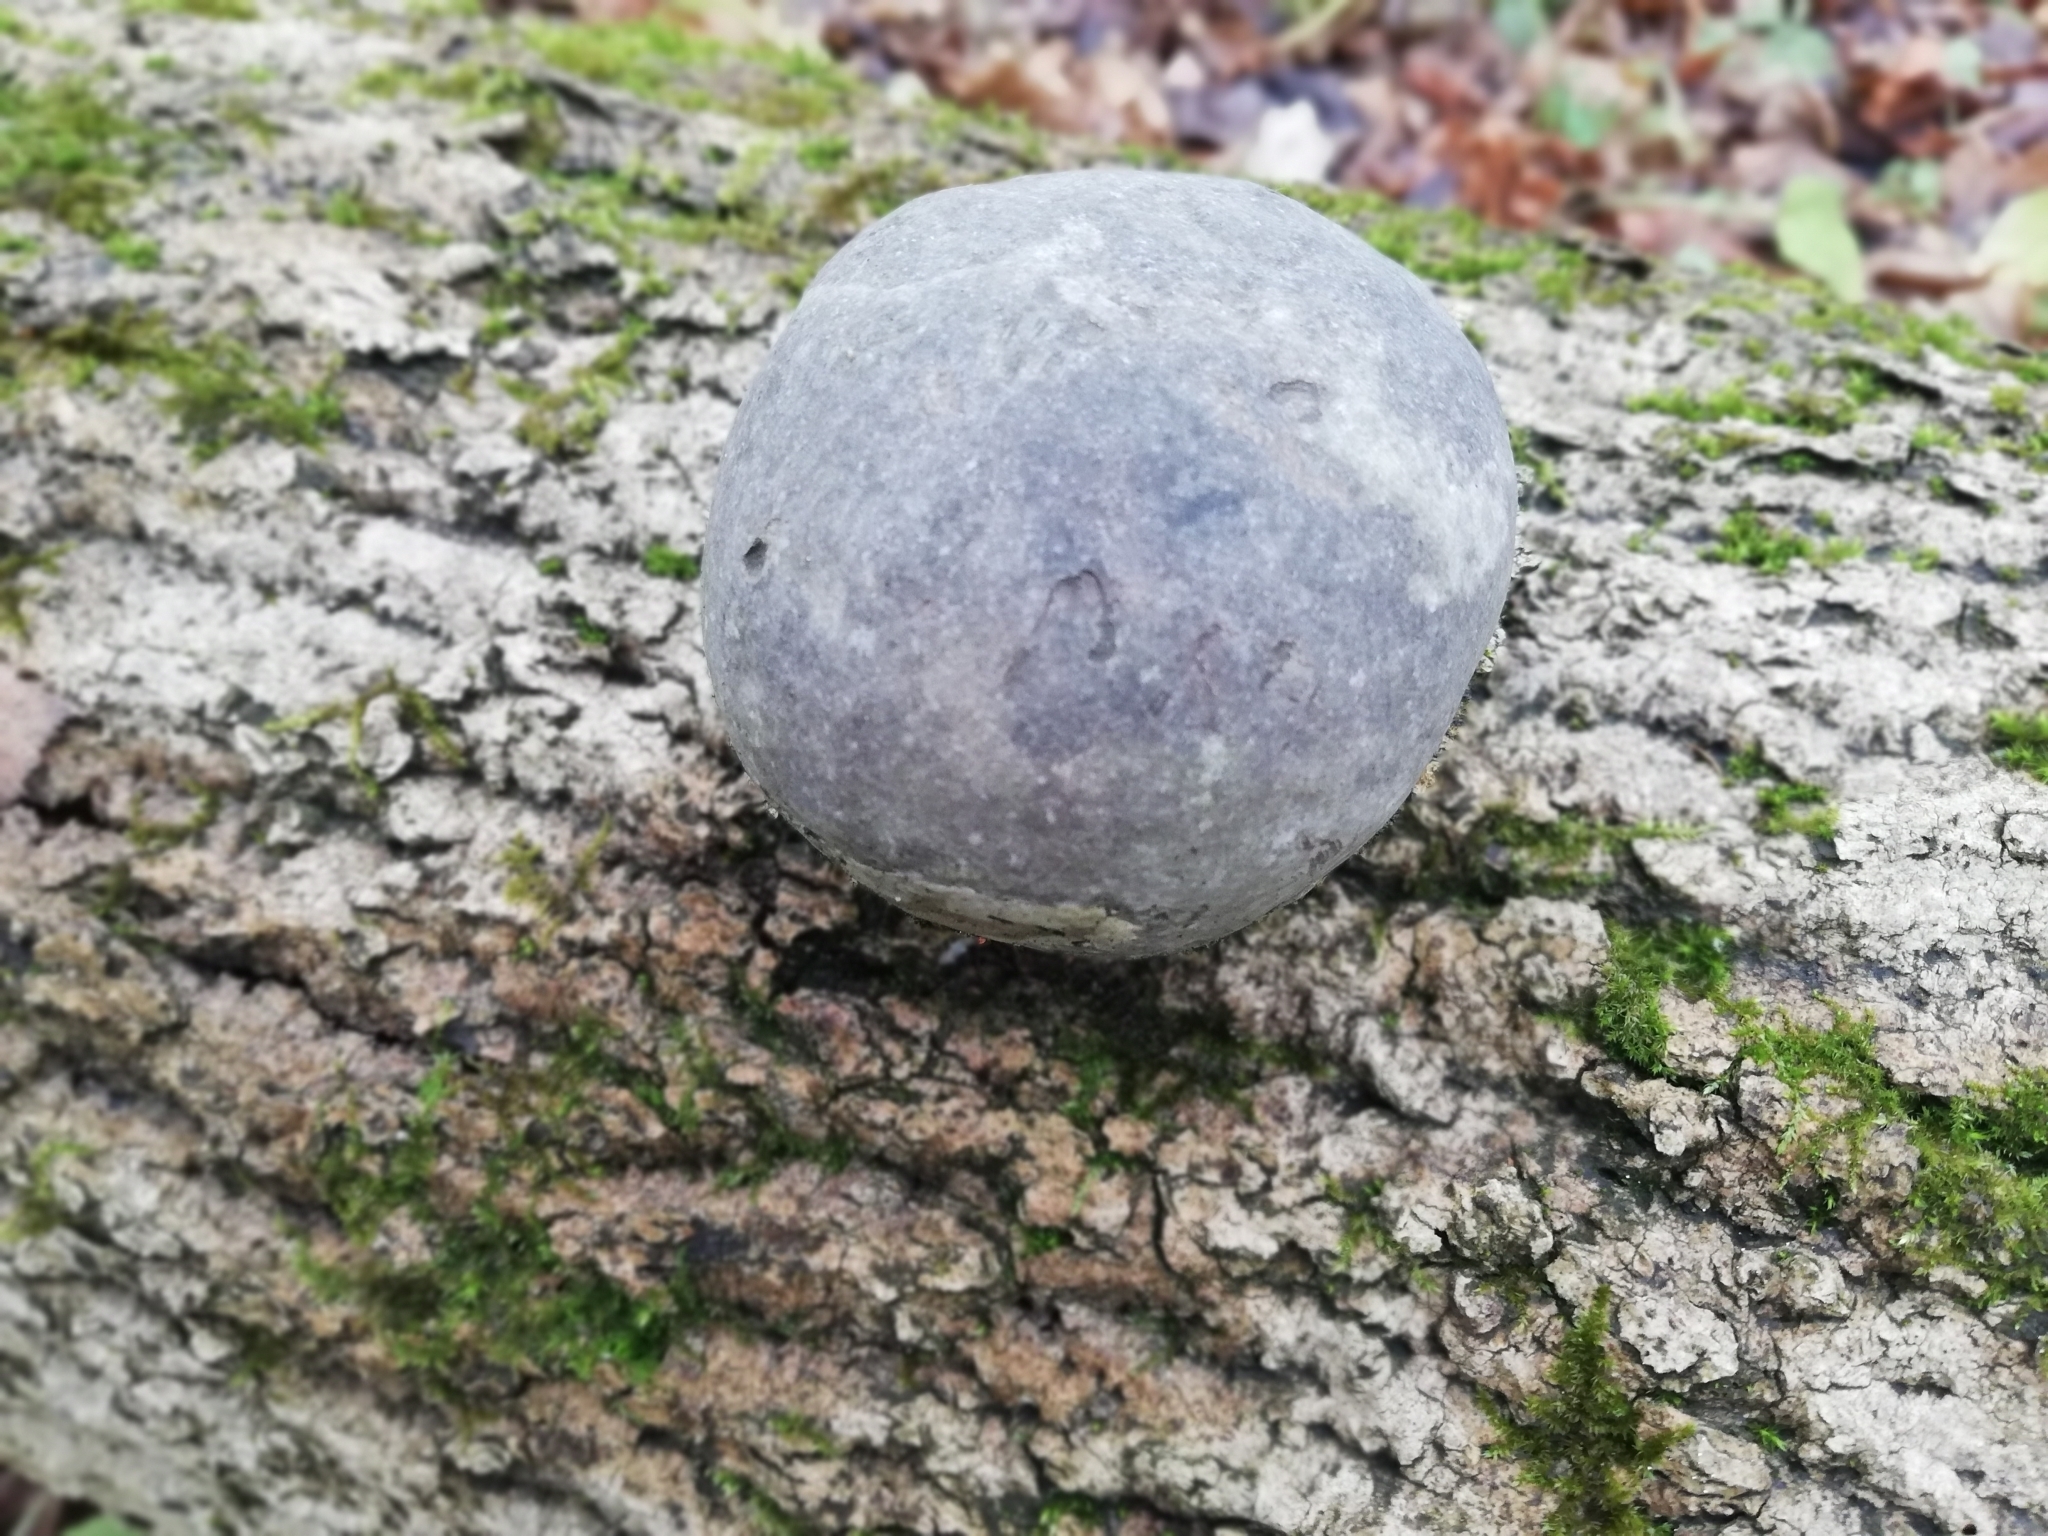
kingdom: Fungi
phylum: Basidiomycota
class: Agaricomycetes
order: Polyporales
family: Polyporaceae
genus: Fomes
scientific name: Fomes fomentarius
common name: Hoof fungus
